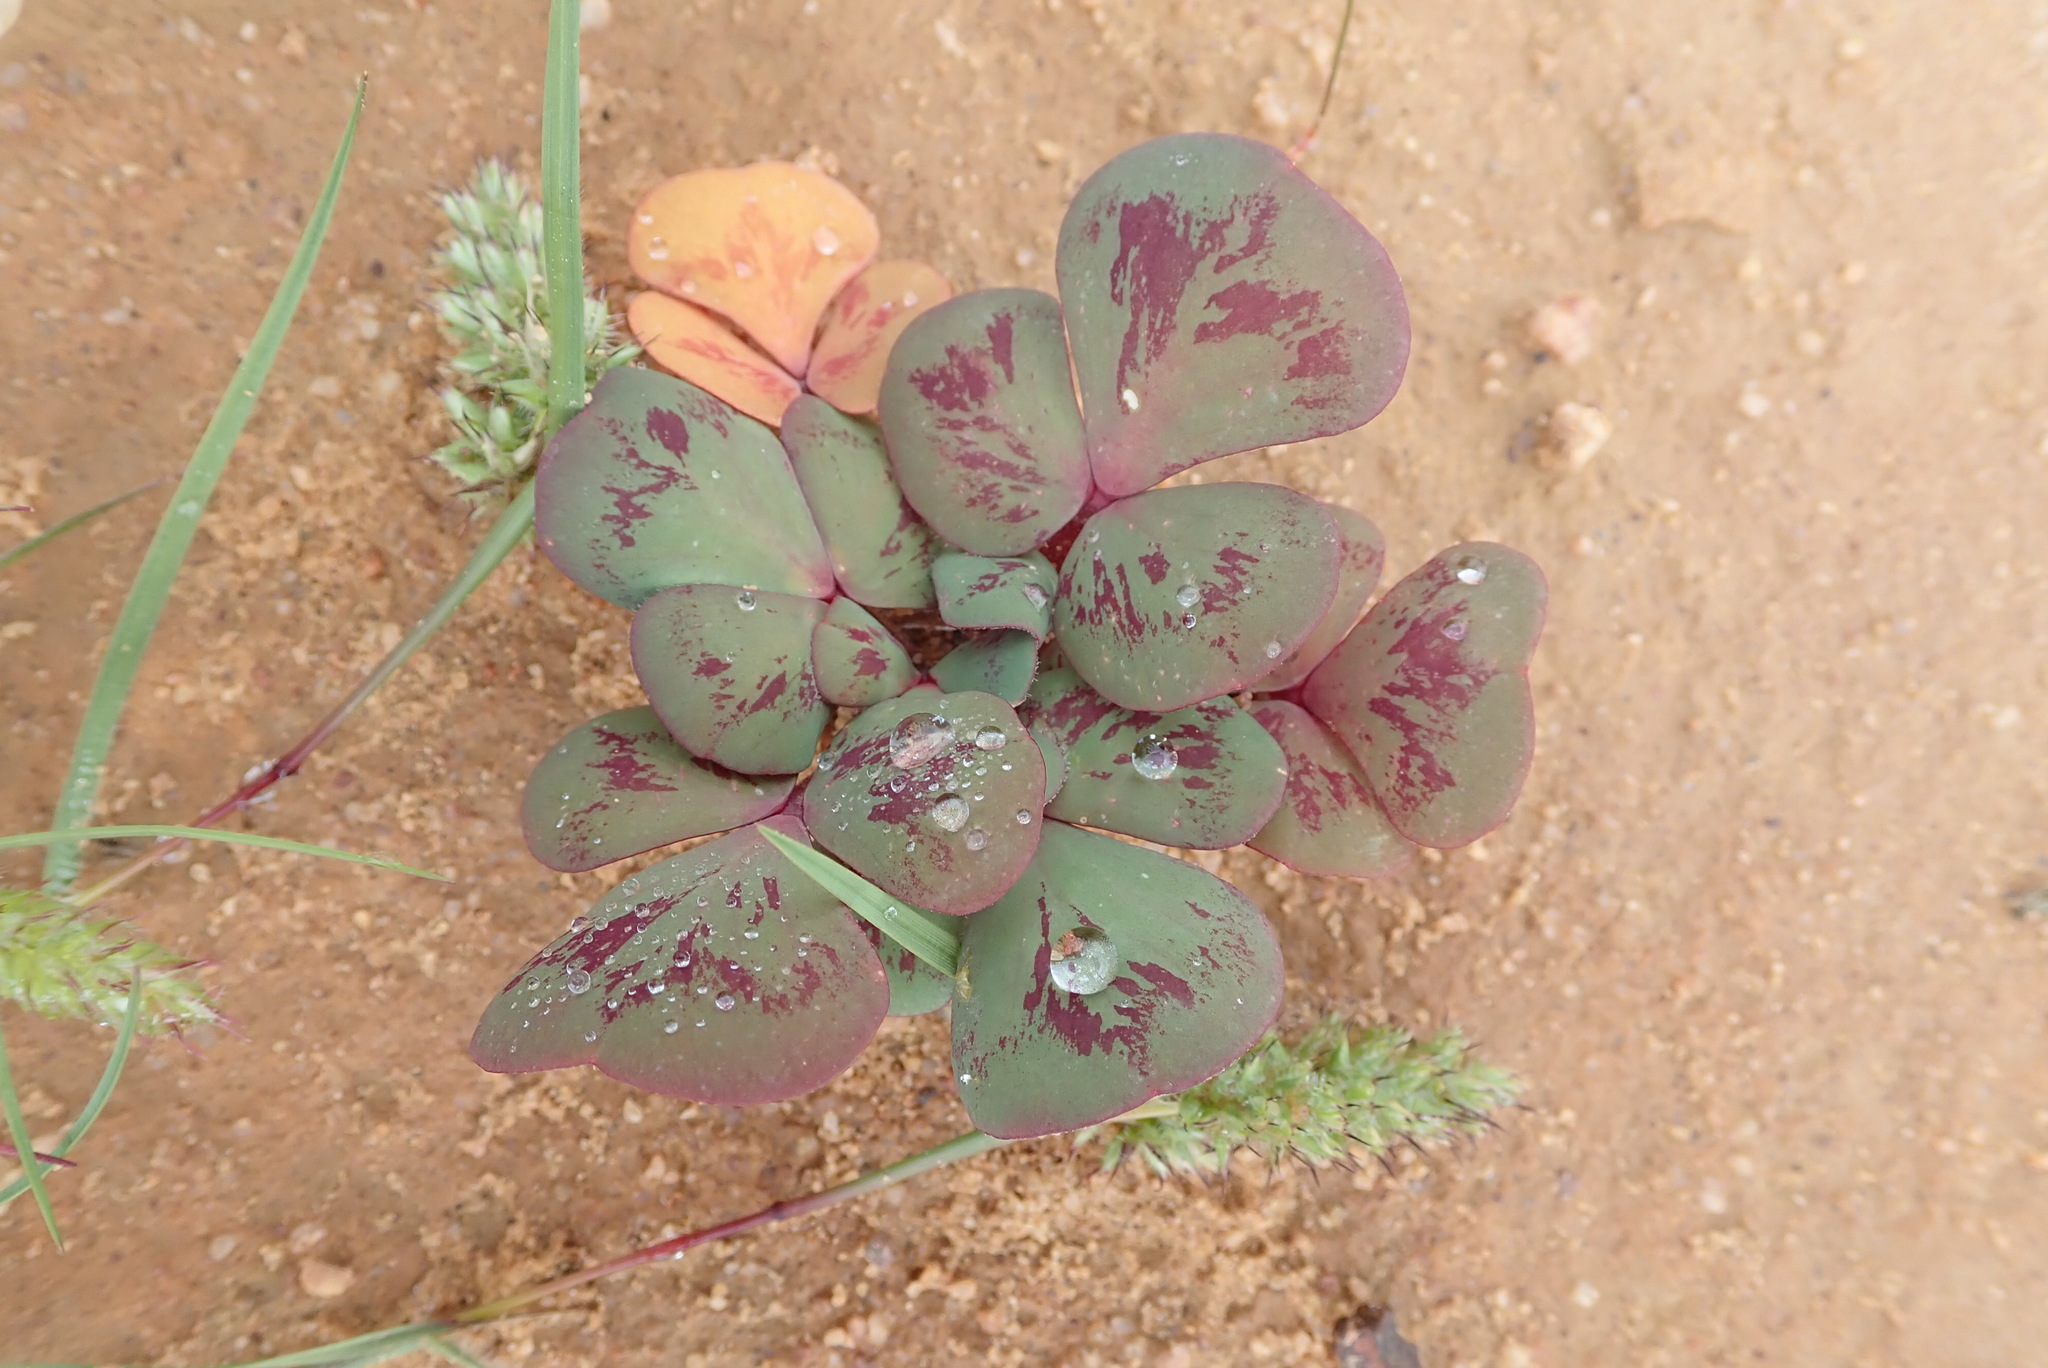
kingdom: Plantae
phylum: Tracheophyta
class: Magnoliopsida
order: Oxalidales
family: Oxalidaceae
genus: Oxalis
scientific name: Oxalis purpurea
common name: Purple woodsorrel
